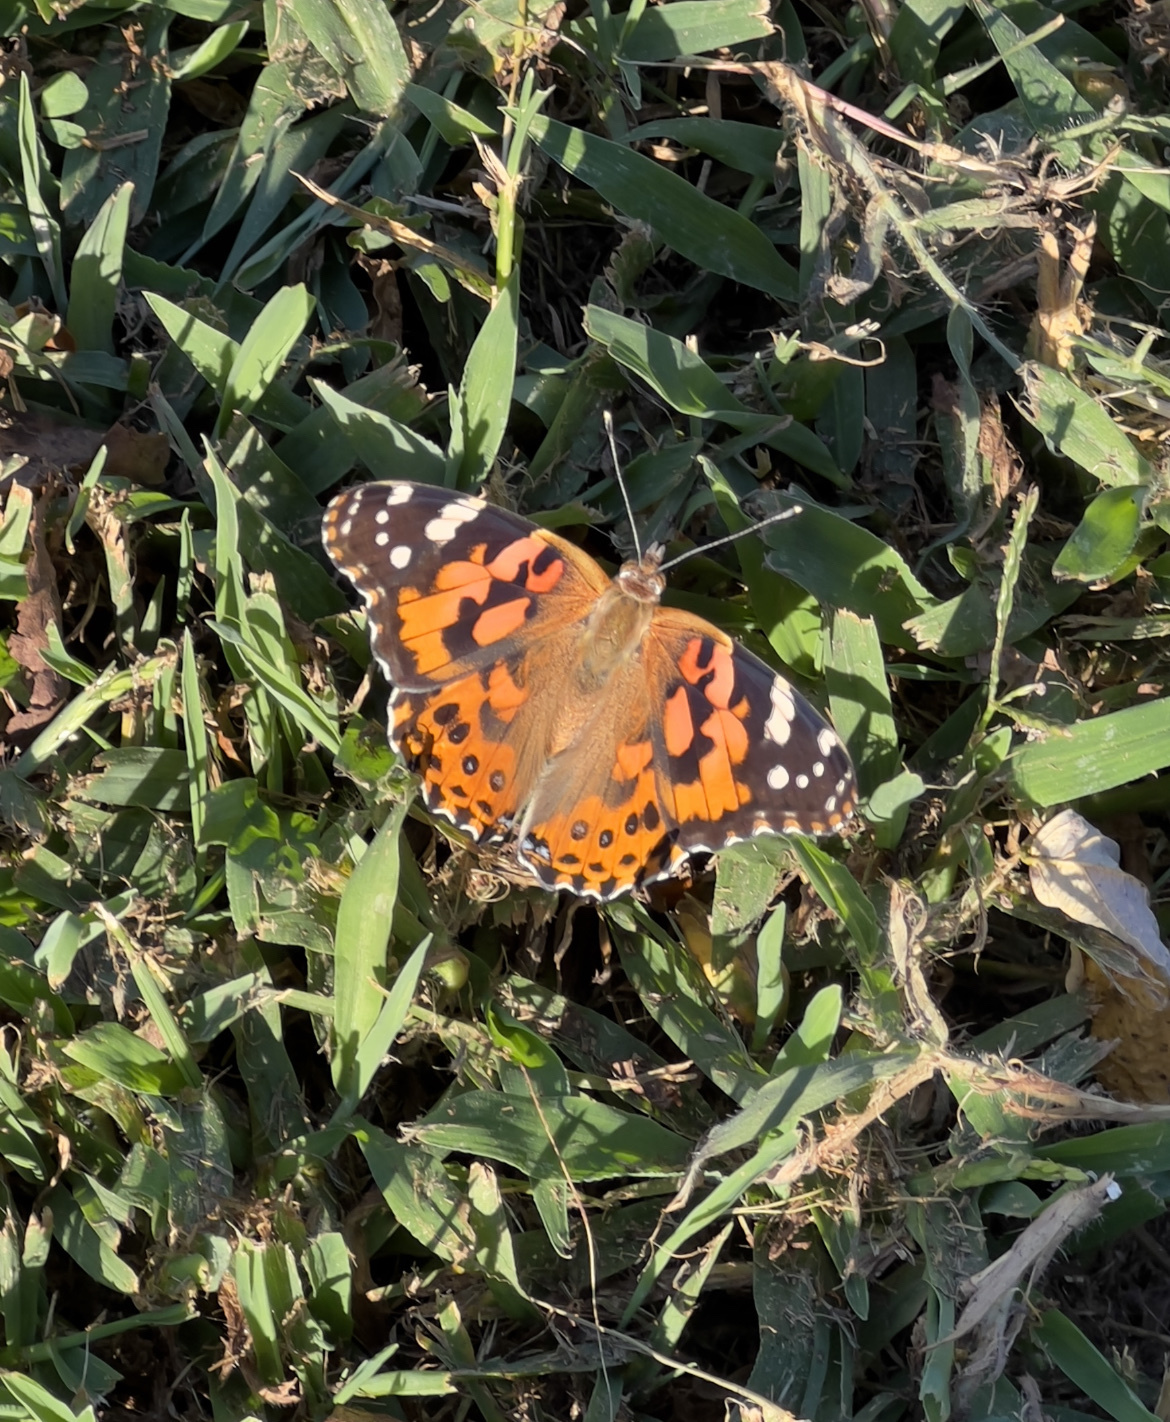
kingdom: Animalia
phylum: Arthropoda
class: Insecta
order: Lepidoptera
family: Nymphalidae
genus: Vanessa
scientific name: Vanessa cardui
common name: Painted lady
